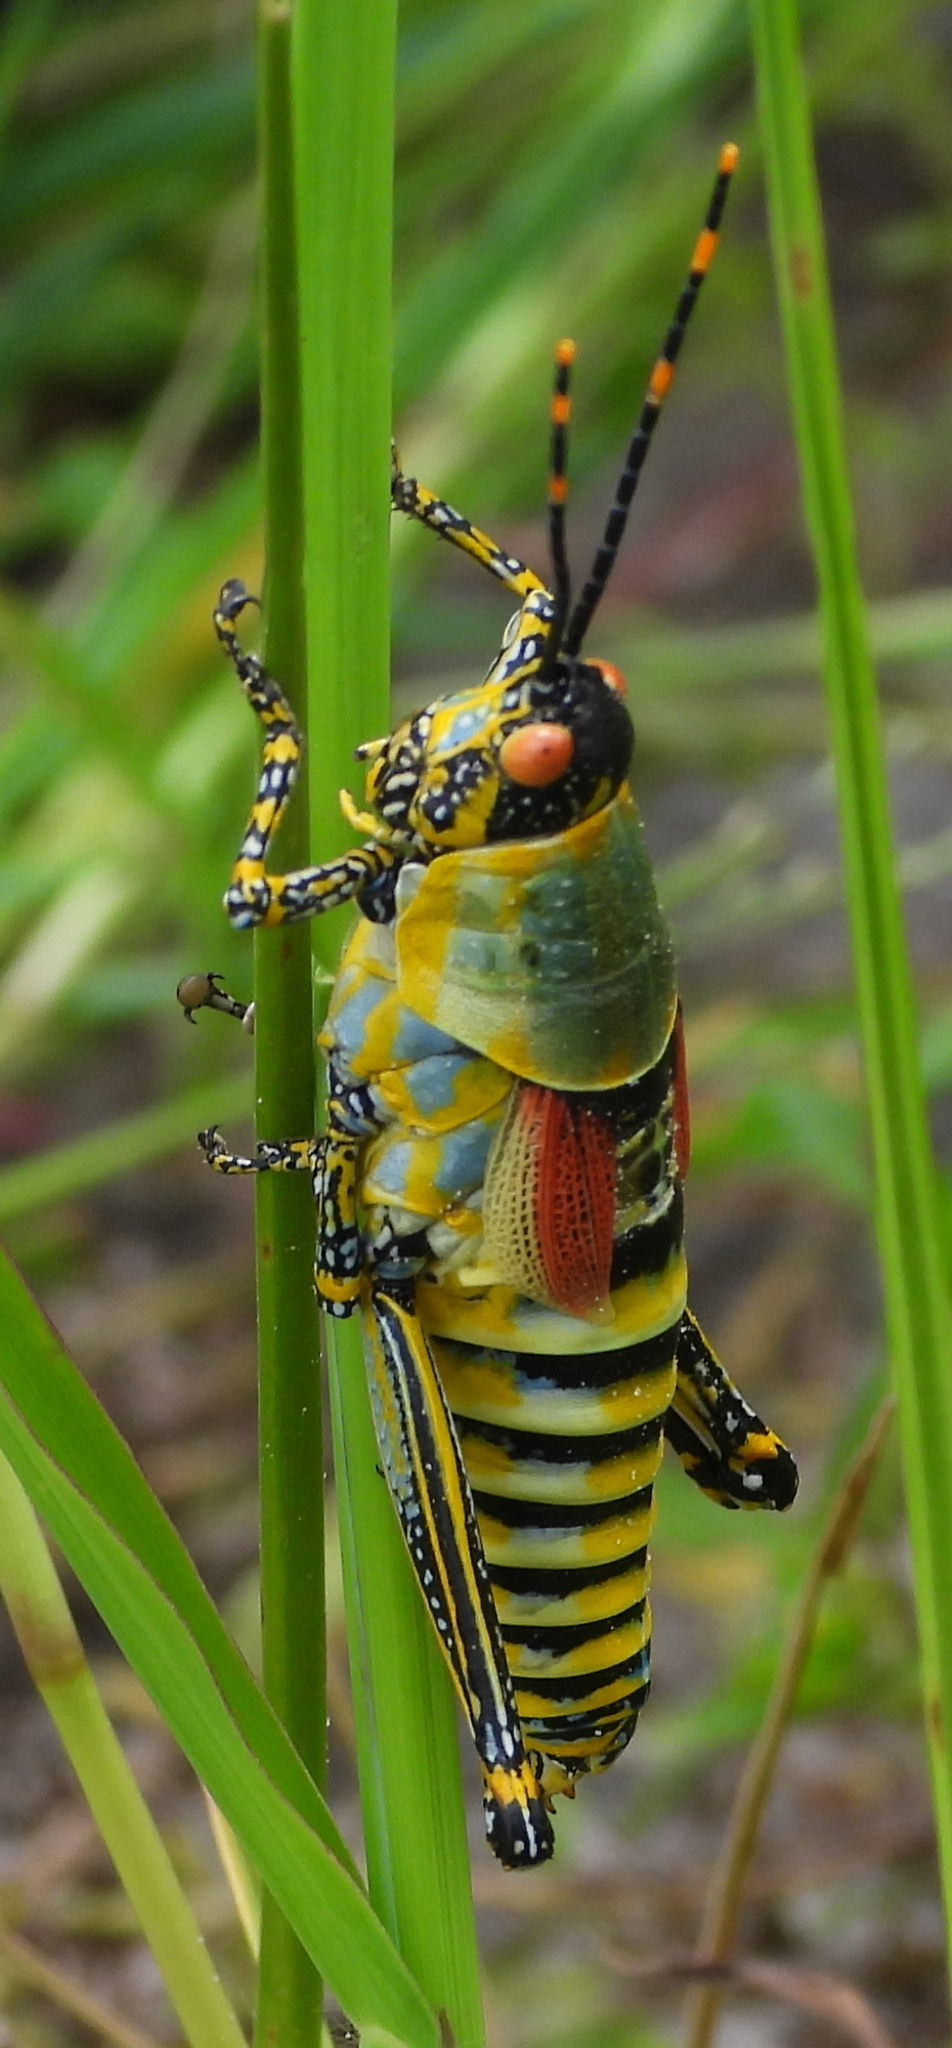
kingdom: Animalia
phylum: Arthropoda
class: Insecta
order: Orthoptera
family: Pyrgomorphidae
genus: Zonocerus
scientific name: Zonocerus elegans
